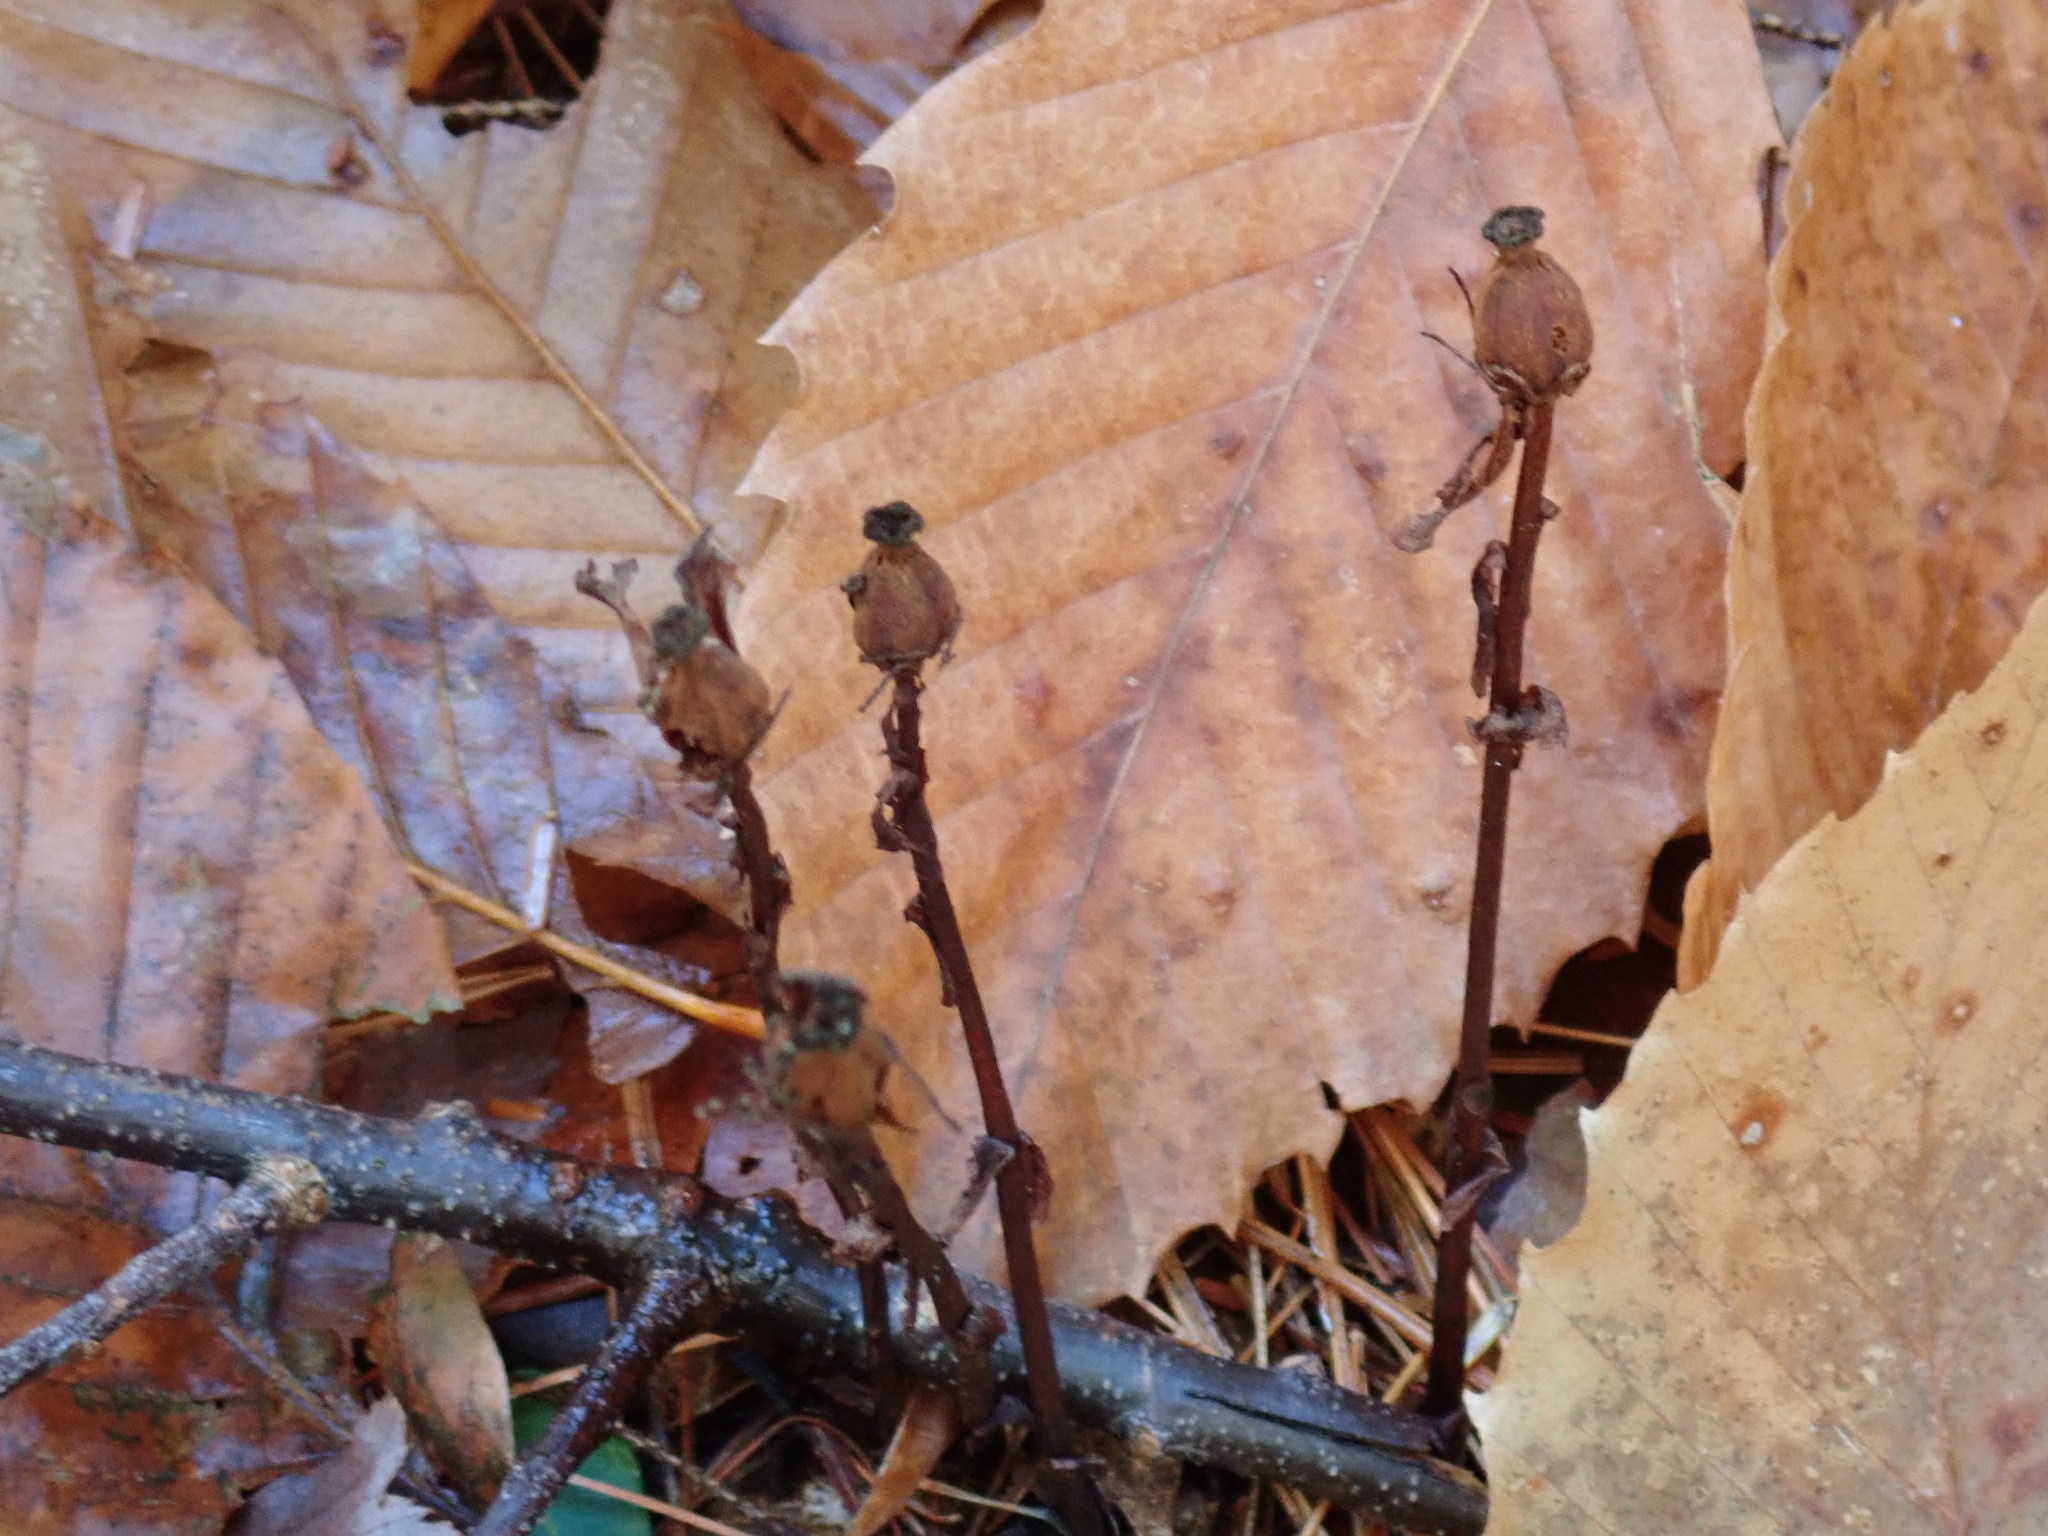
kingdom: Plantae
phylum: Tracheophyta
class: Magnoliopsida
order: Ericales
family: Ericaceae
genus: Monotropa
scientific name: Monotropa uniflora
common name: Convulsion root
